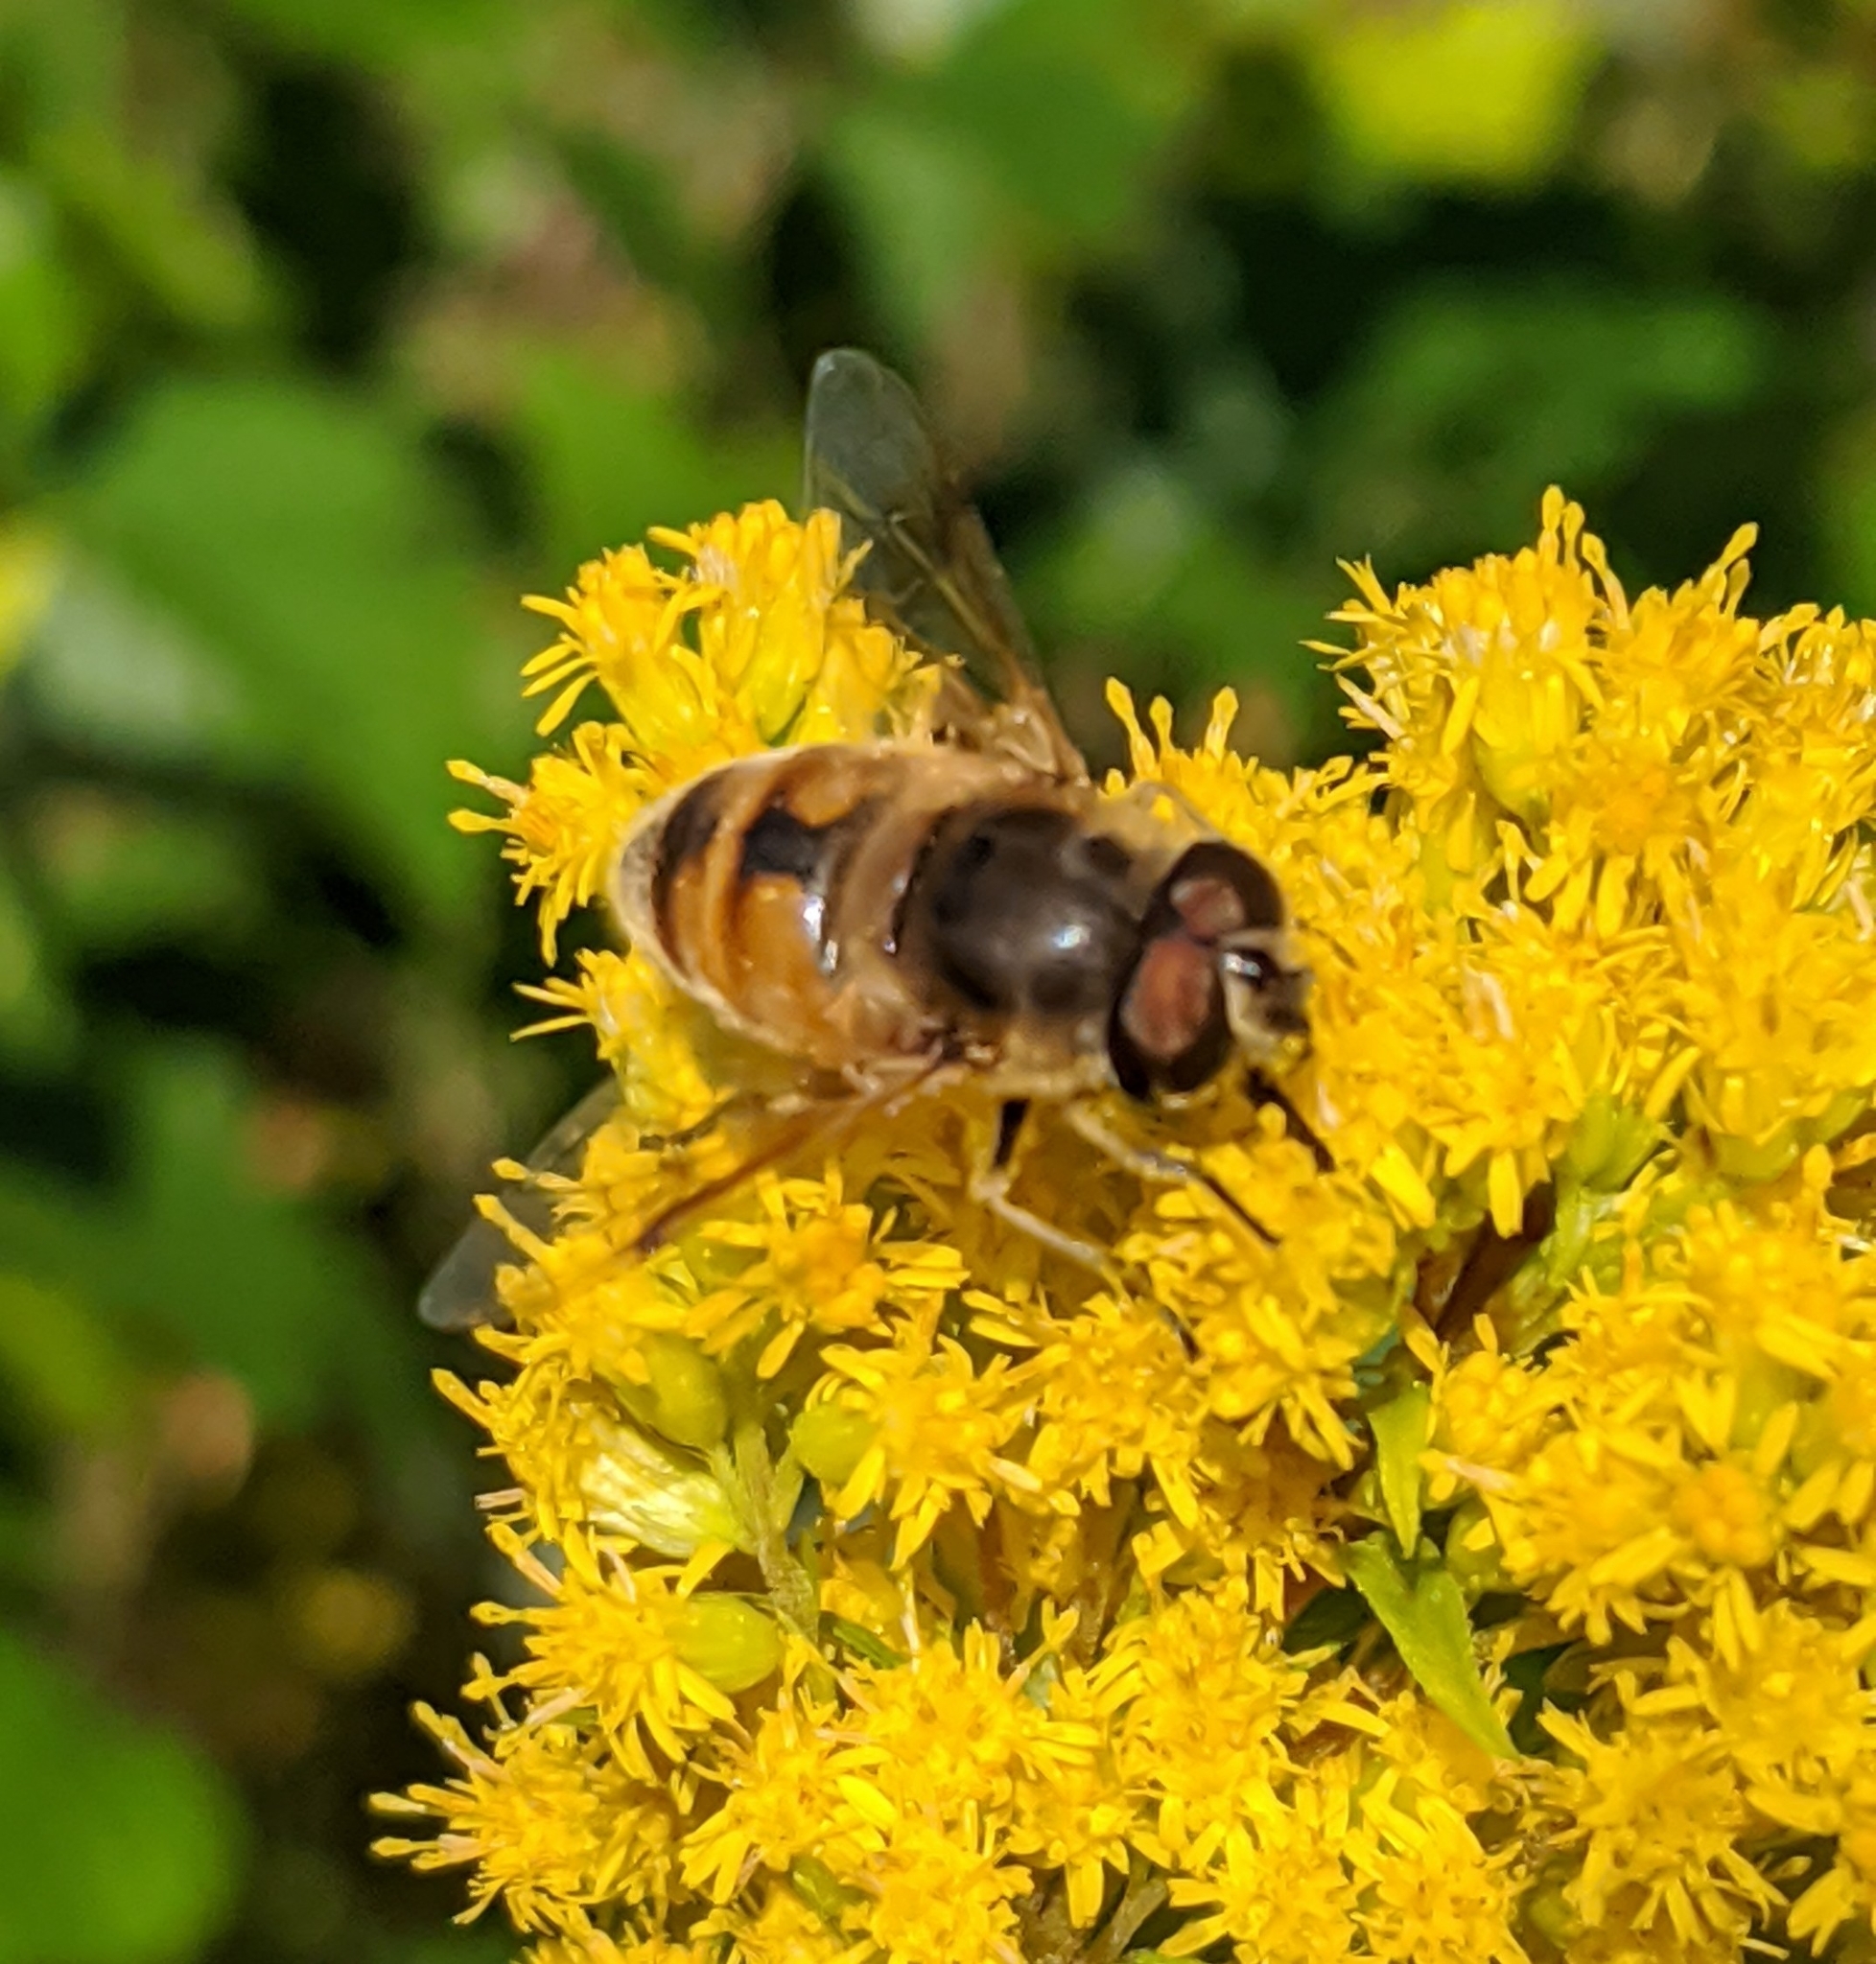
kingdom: Animalia
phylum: Arthropoda
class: Insecta
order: Diptera
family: Syrphidae
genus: Eristalis
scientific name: Eristalis tenax
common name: Drone fly
